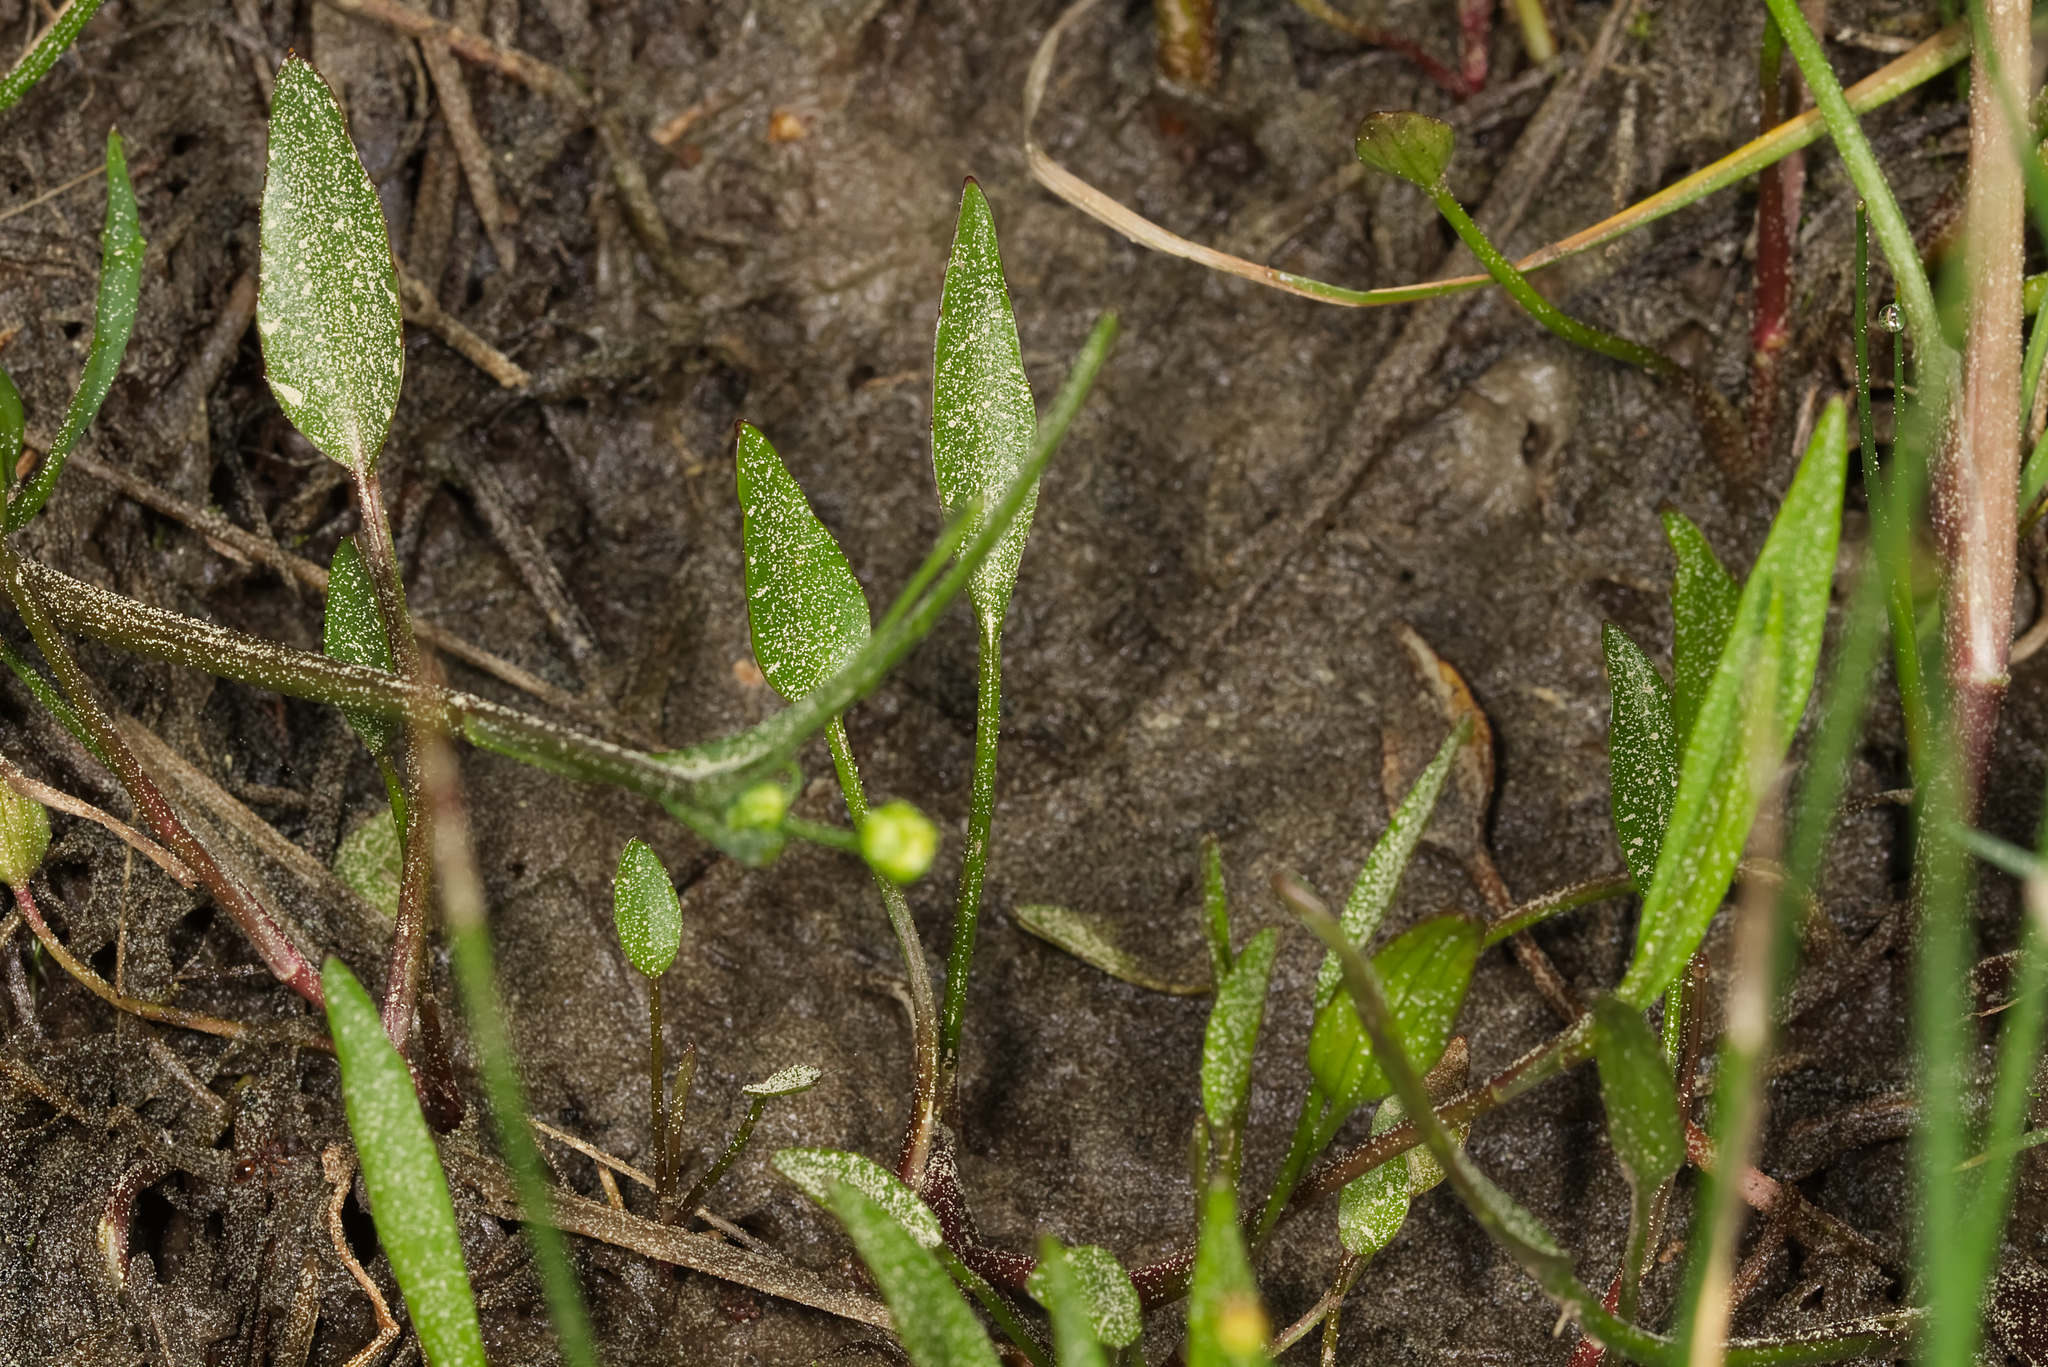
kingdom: Plantae
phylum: Tracheophyta
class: Magnoliopsida
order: Ranunculales
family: Ranunculaceae
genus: Ranunculus
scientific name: Ranunculus flammula
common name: Lesser spearwort
